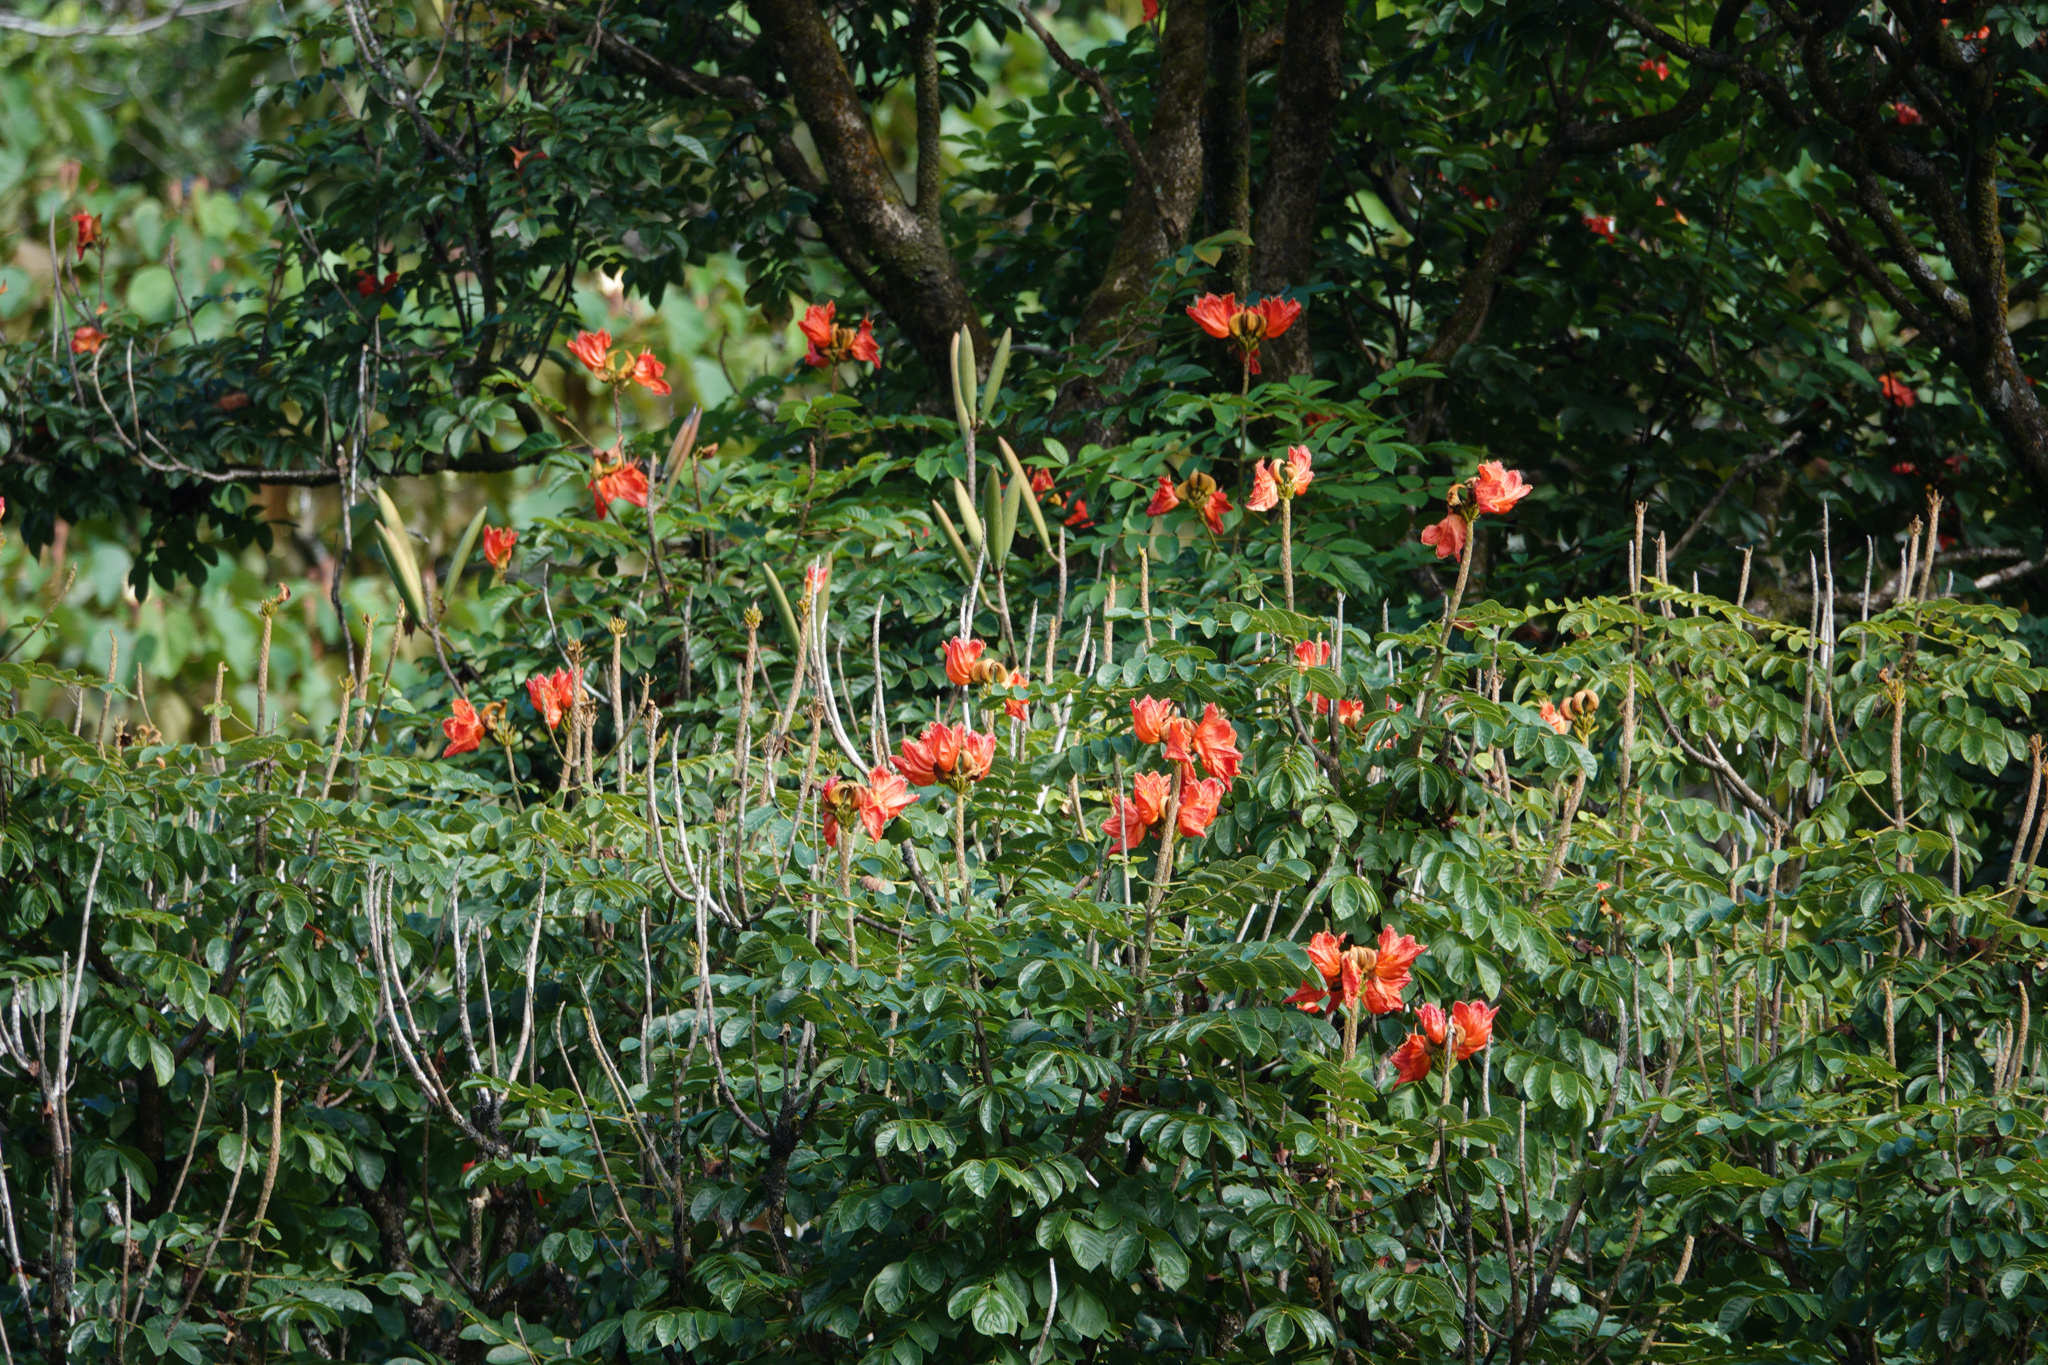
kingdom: Plantae
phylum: Tracheophyta
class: Magnoliopsida
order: Lamiales
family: Bignoniaceae
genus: Spathodea
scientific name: Spathodea campanulata
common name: African tuliptree
